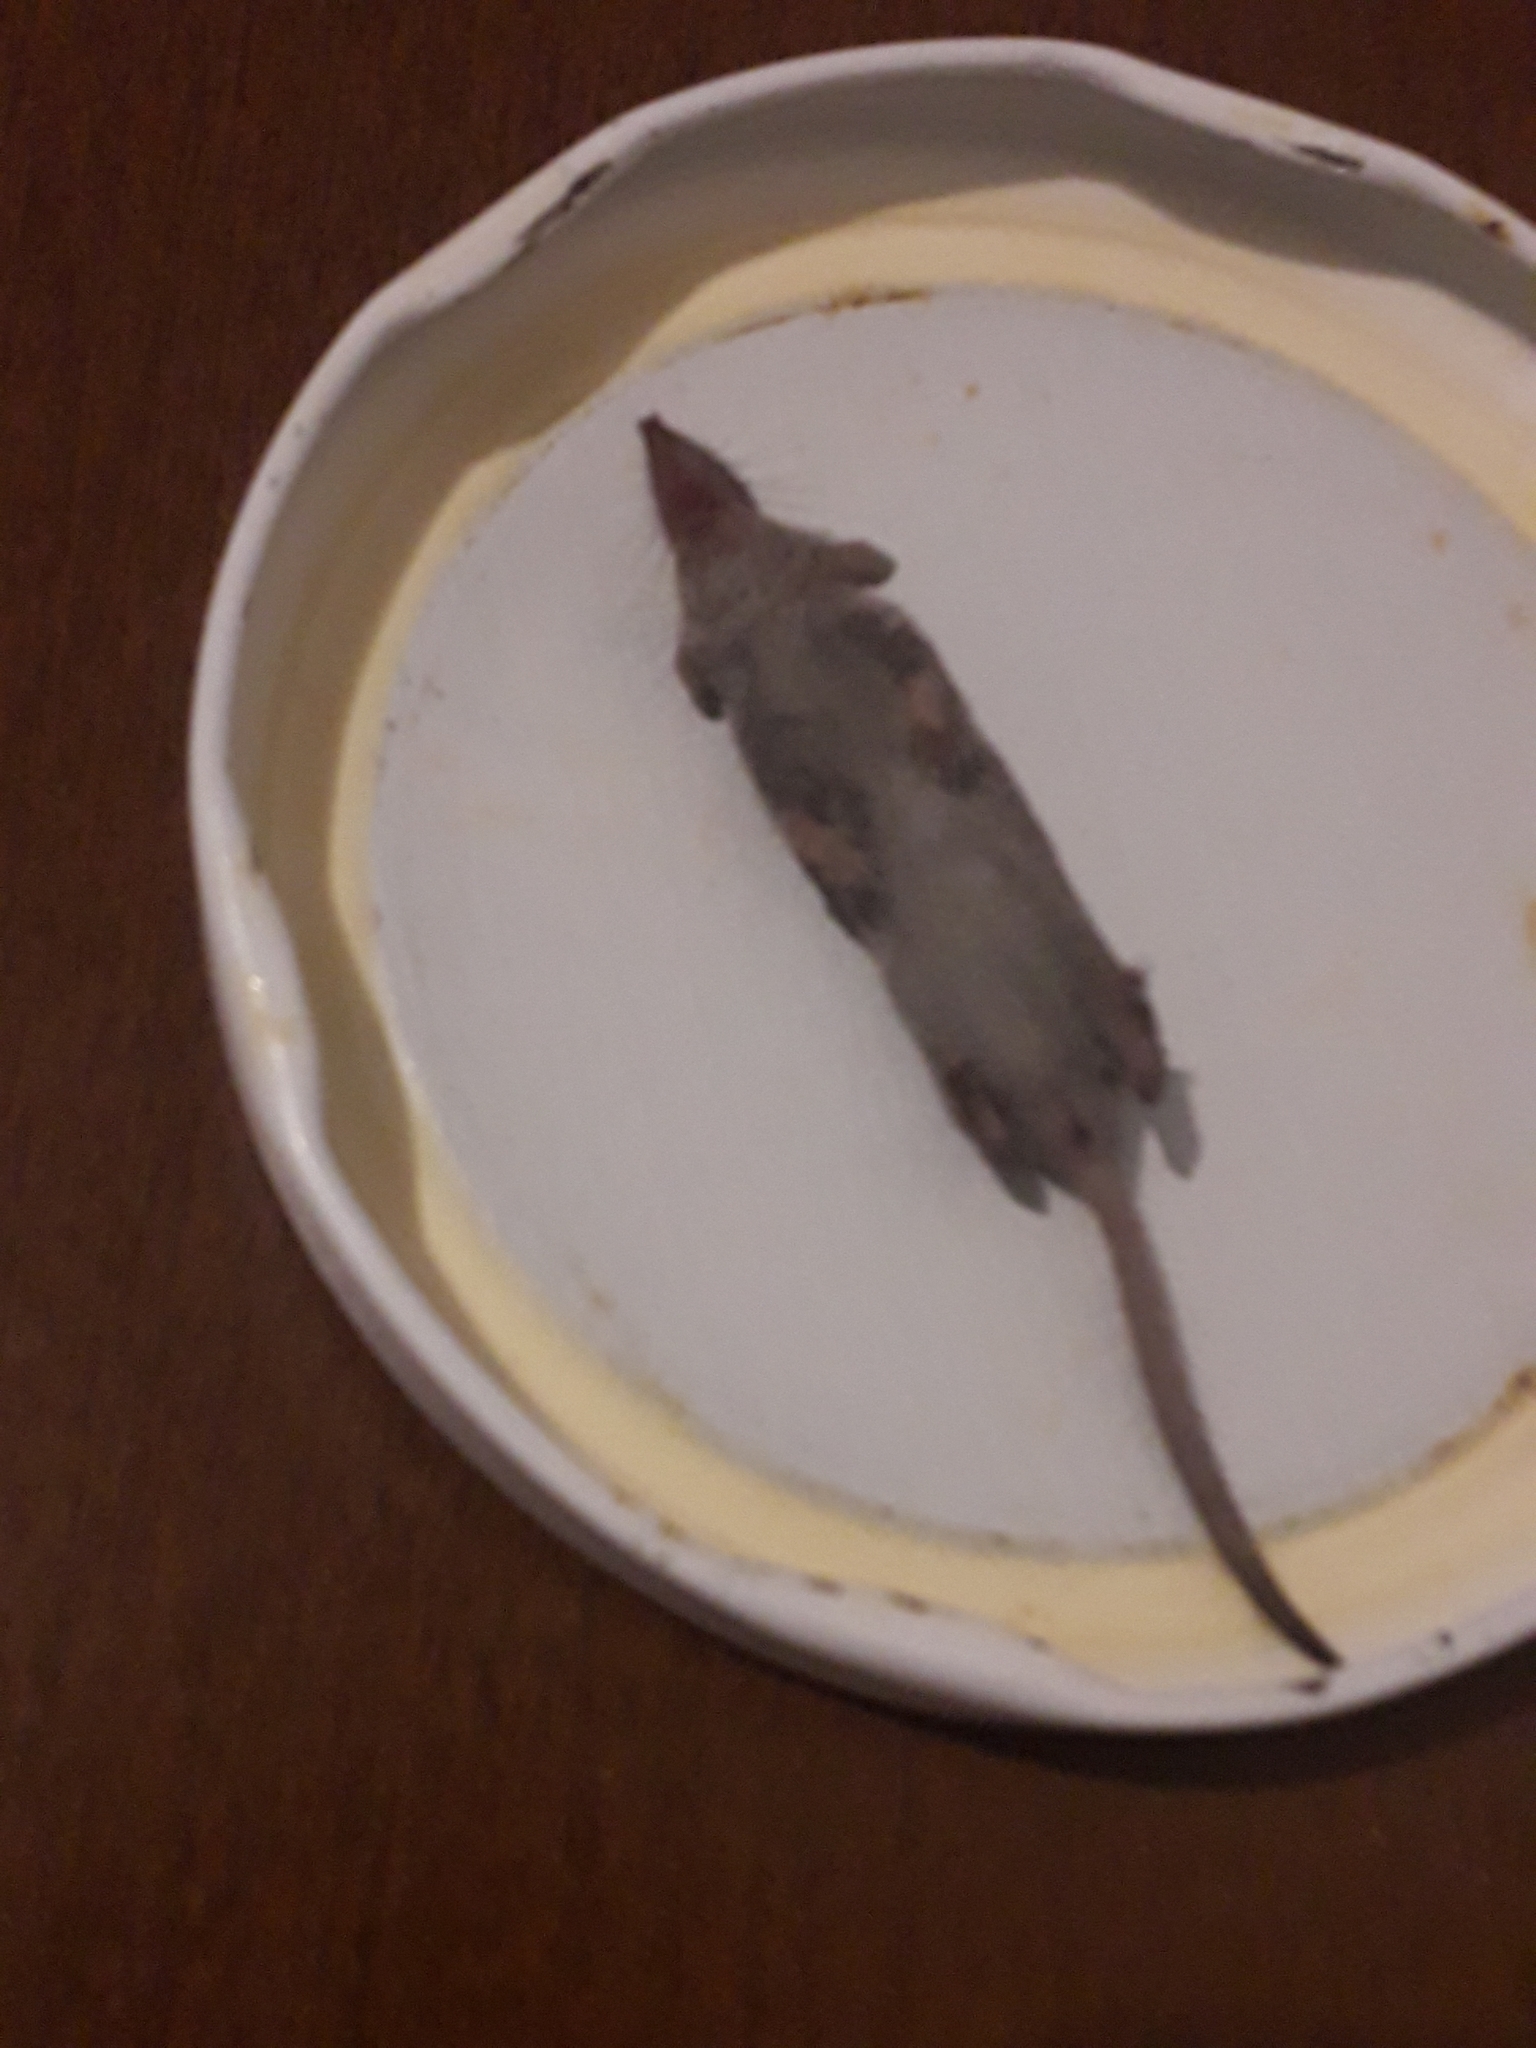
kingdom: Animalia
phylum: Chordata
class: Mammalia
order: Soricomorpha
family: Soricidae
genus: Suncus
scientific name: Suncus etruscus
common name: Etruscan shrew
